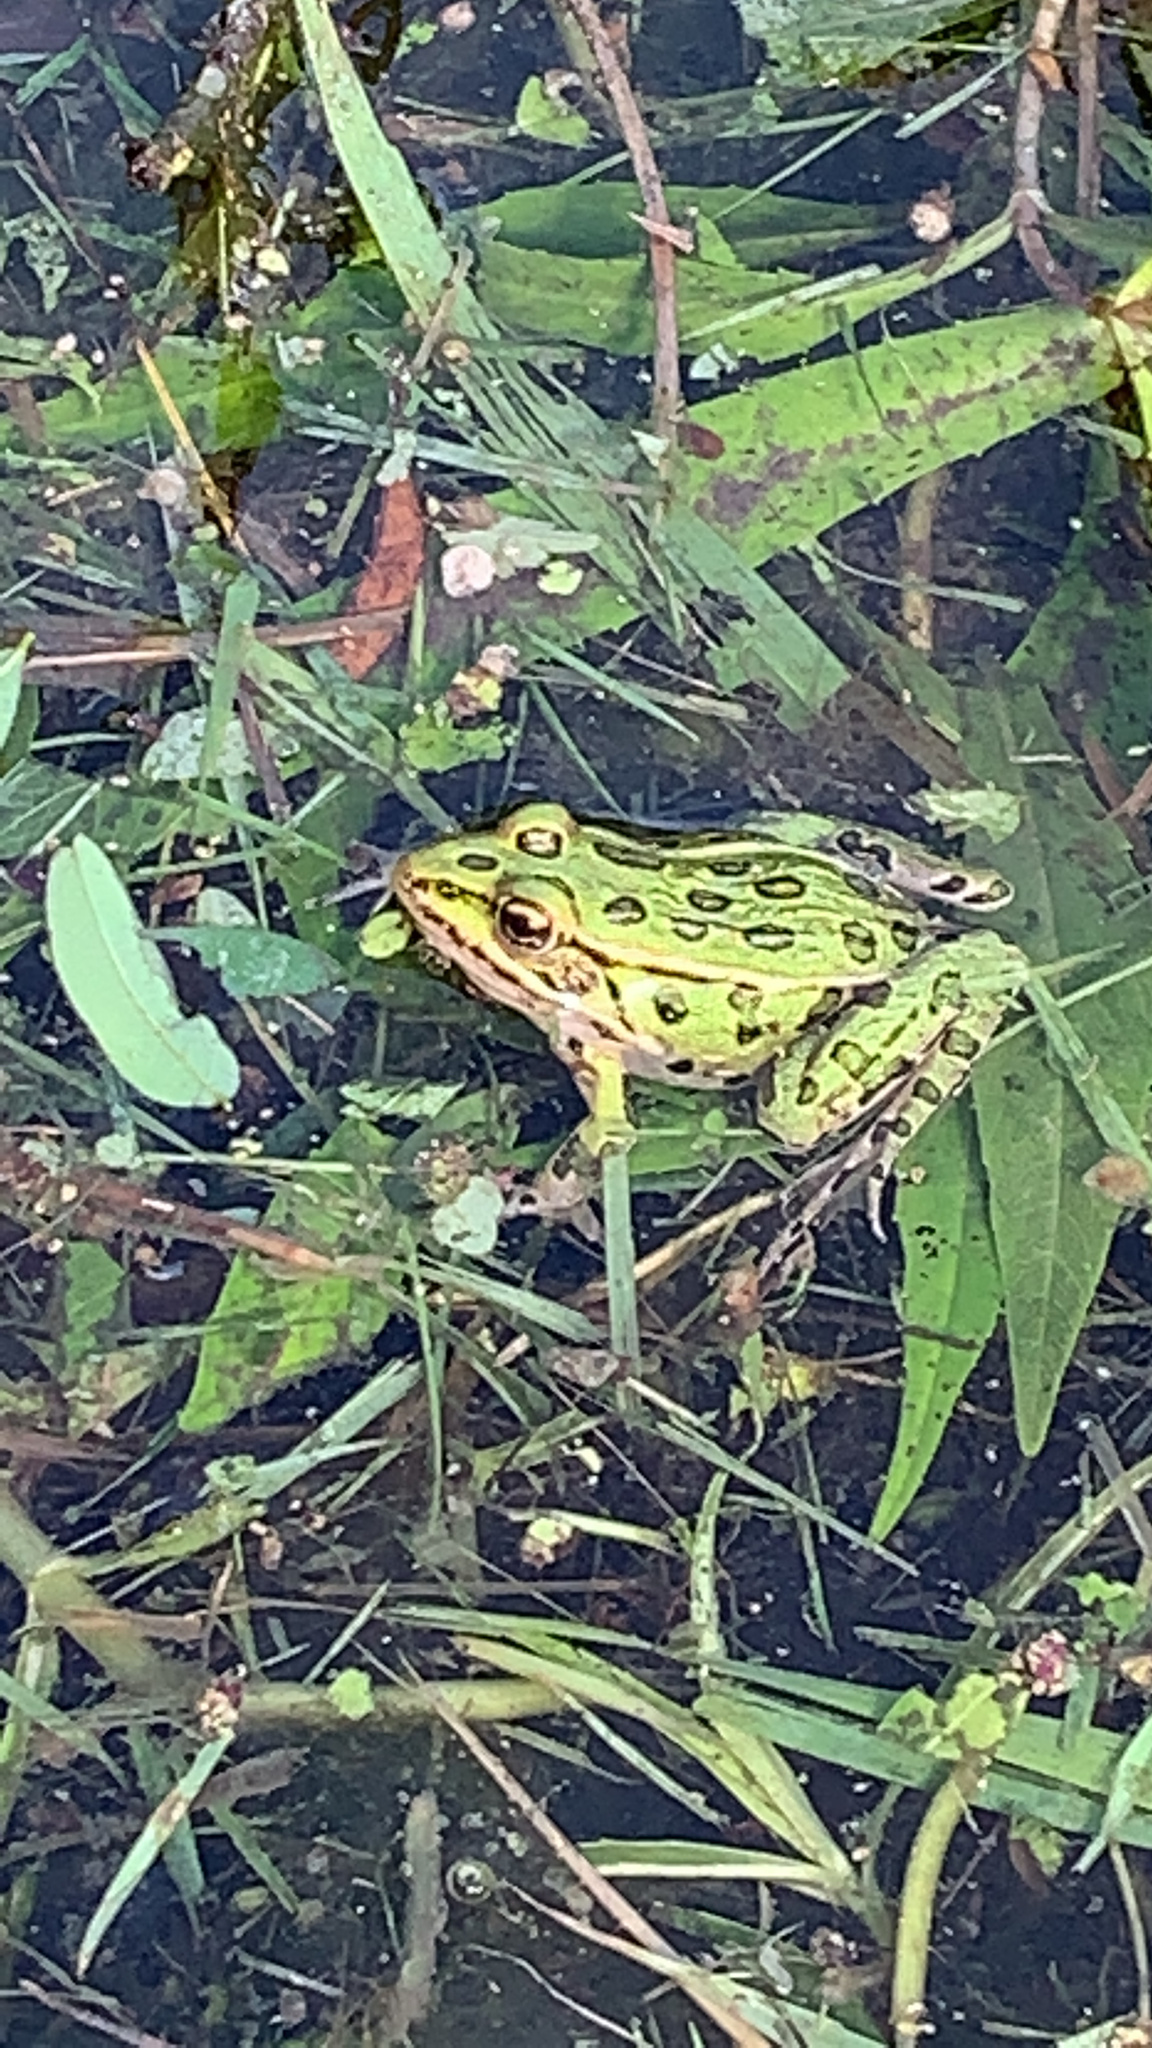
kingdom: Animalia
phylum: Chordata
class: Amphibia
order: Anura
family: Ranidae
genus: Lithobates
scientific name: Lithobates pipiens
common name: Northern leopard frog
